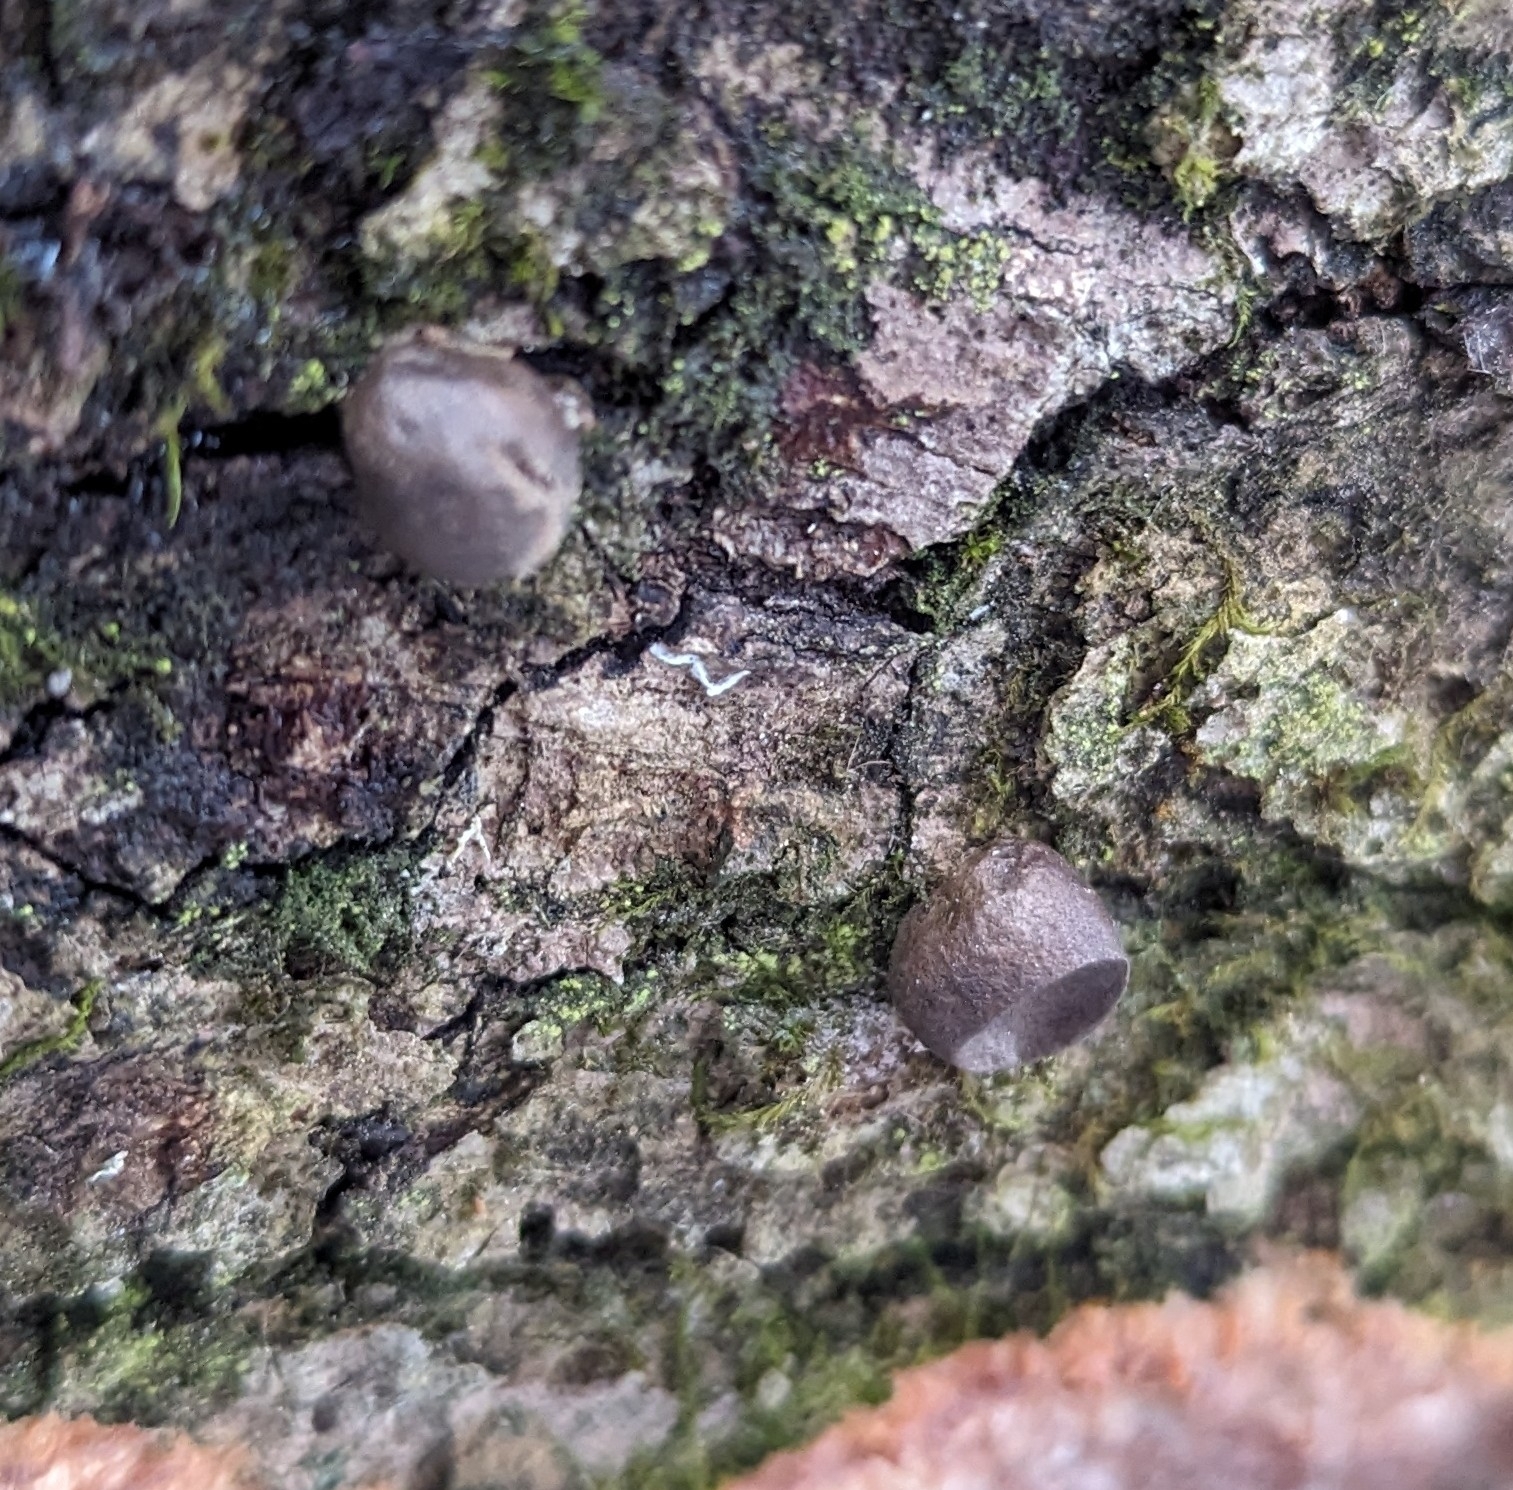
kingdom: Protozoa
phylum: Mycetozoa
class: Myxomycetes
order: Cribrariales
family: Tubiferaceae
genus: Lycogala
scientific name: Lycogala epidendrum
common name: Wolf's milk
